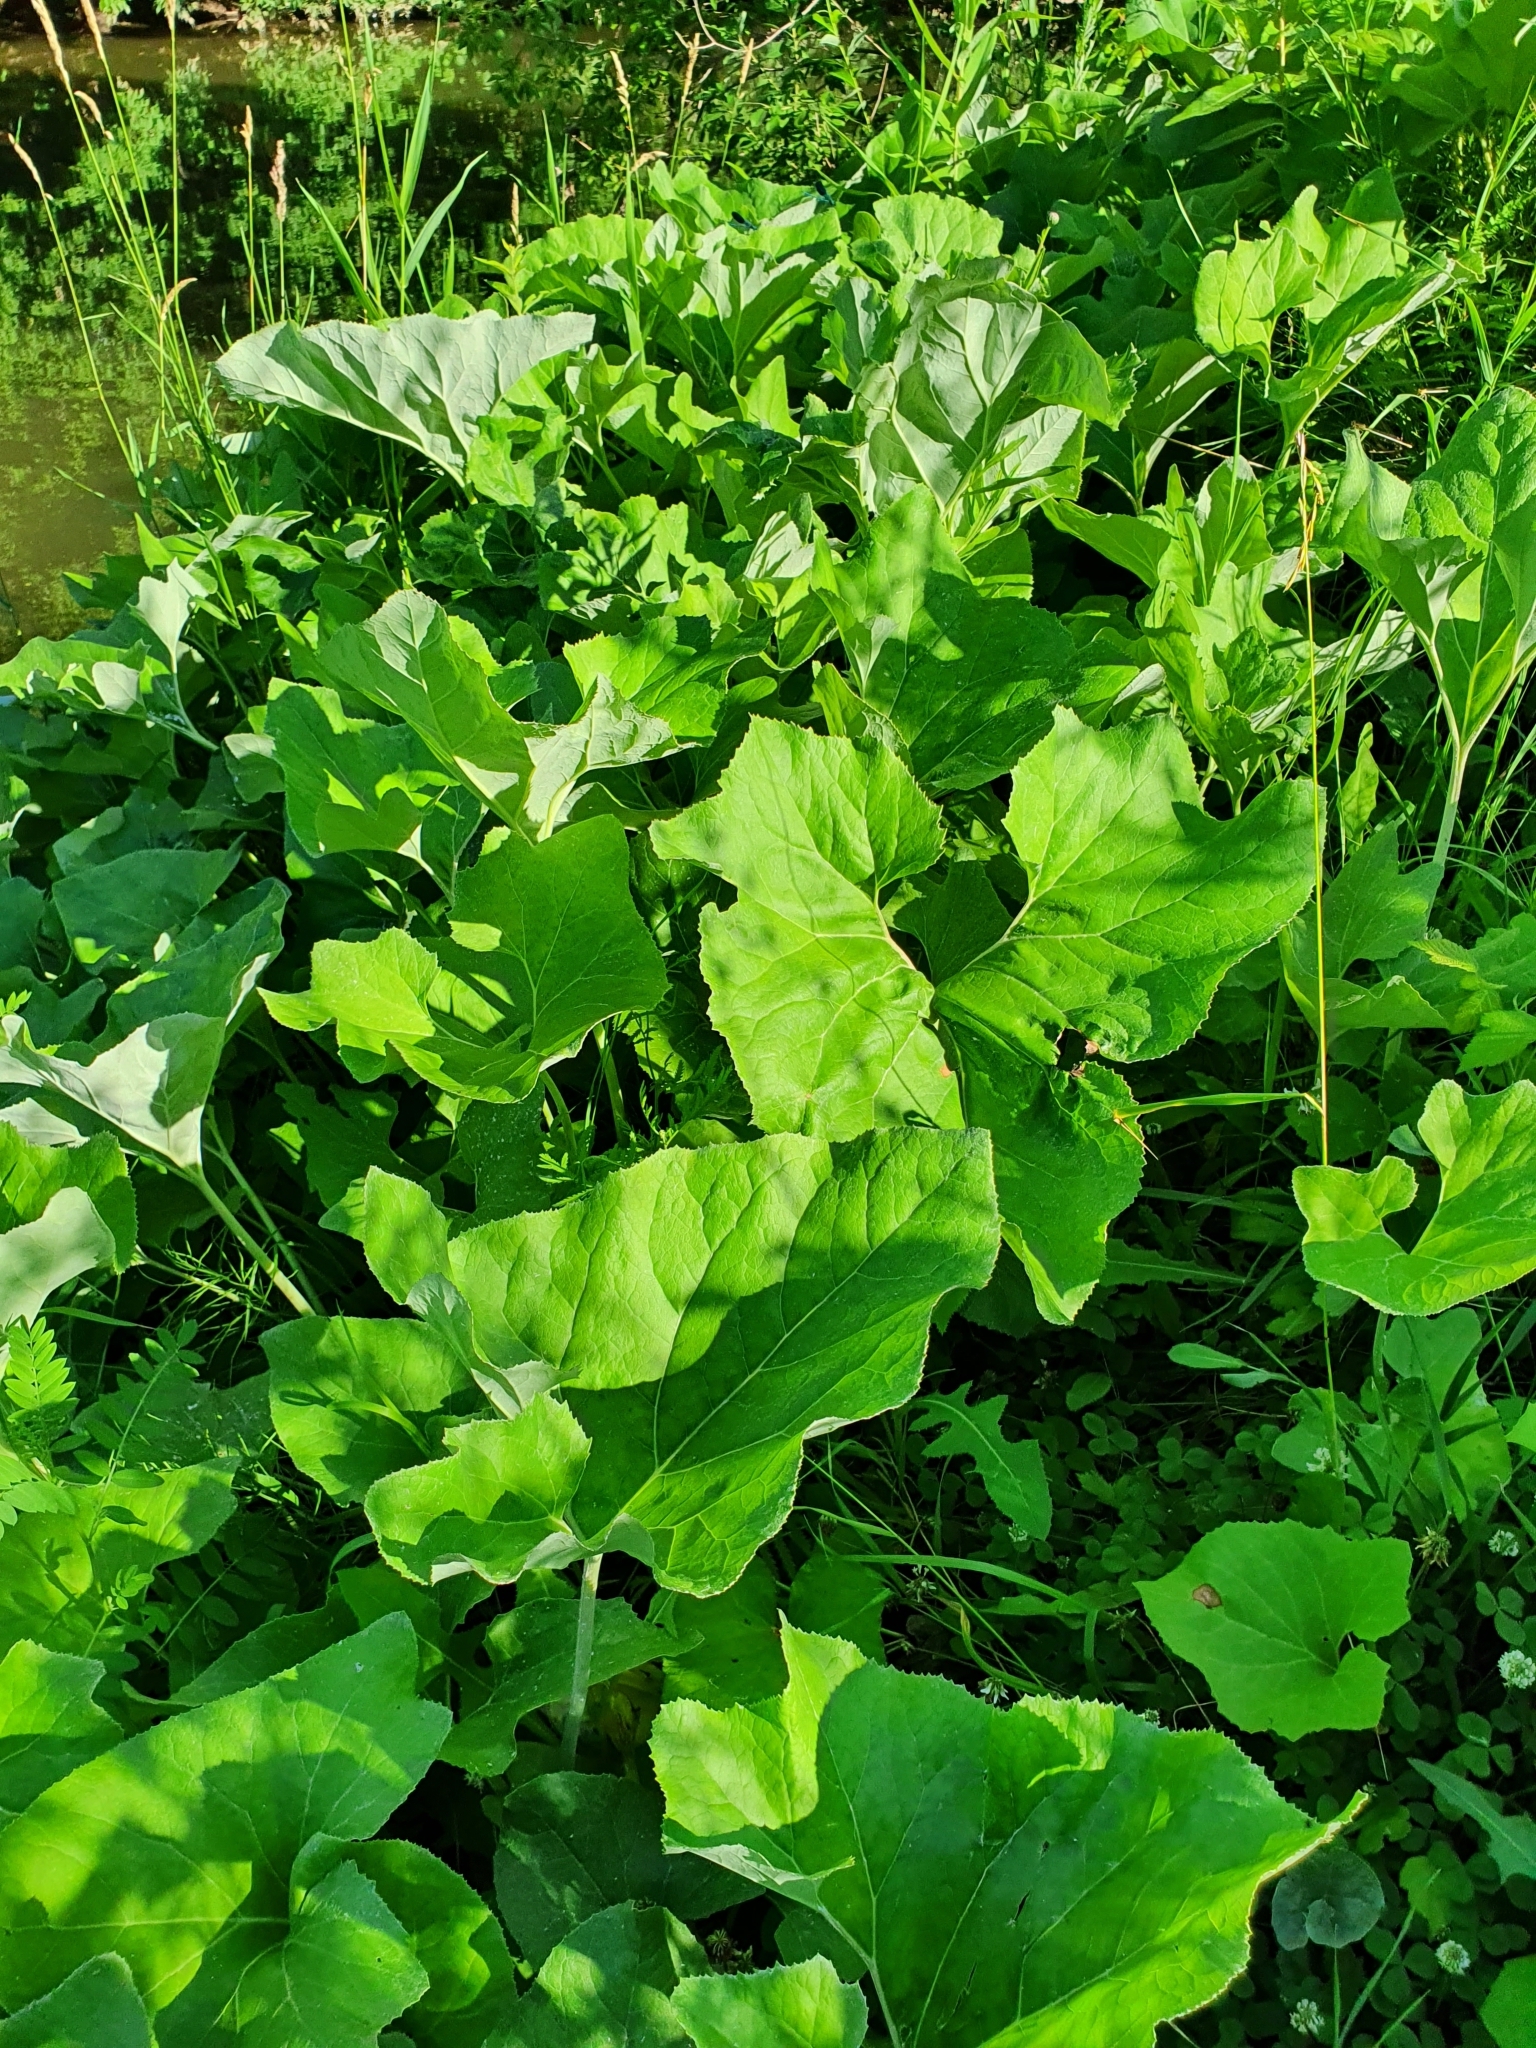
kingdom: Plantae
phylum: Tracheophyta
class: Magnoliopsida
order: Asterales
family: Asteraceae
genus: Petasites
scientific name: Petasites spurius
